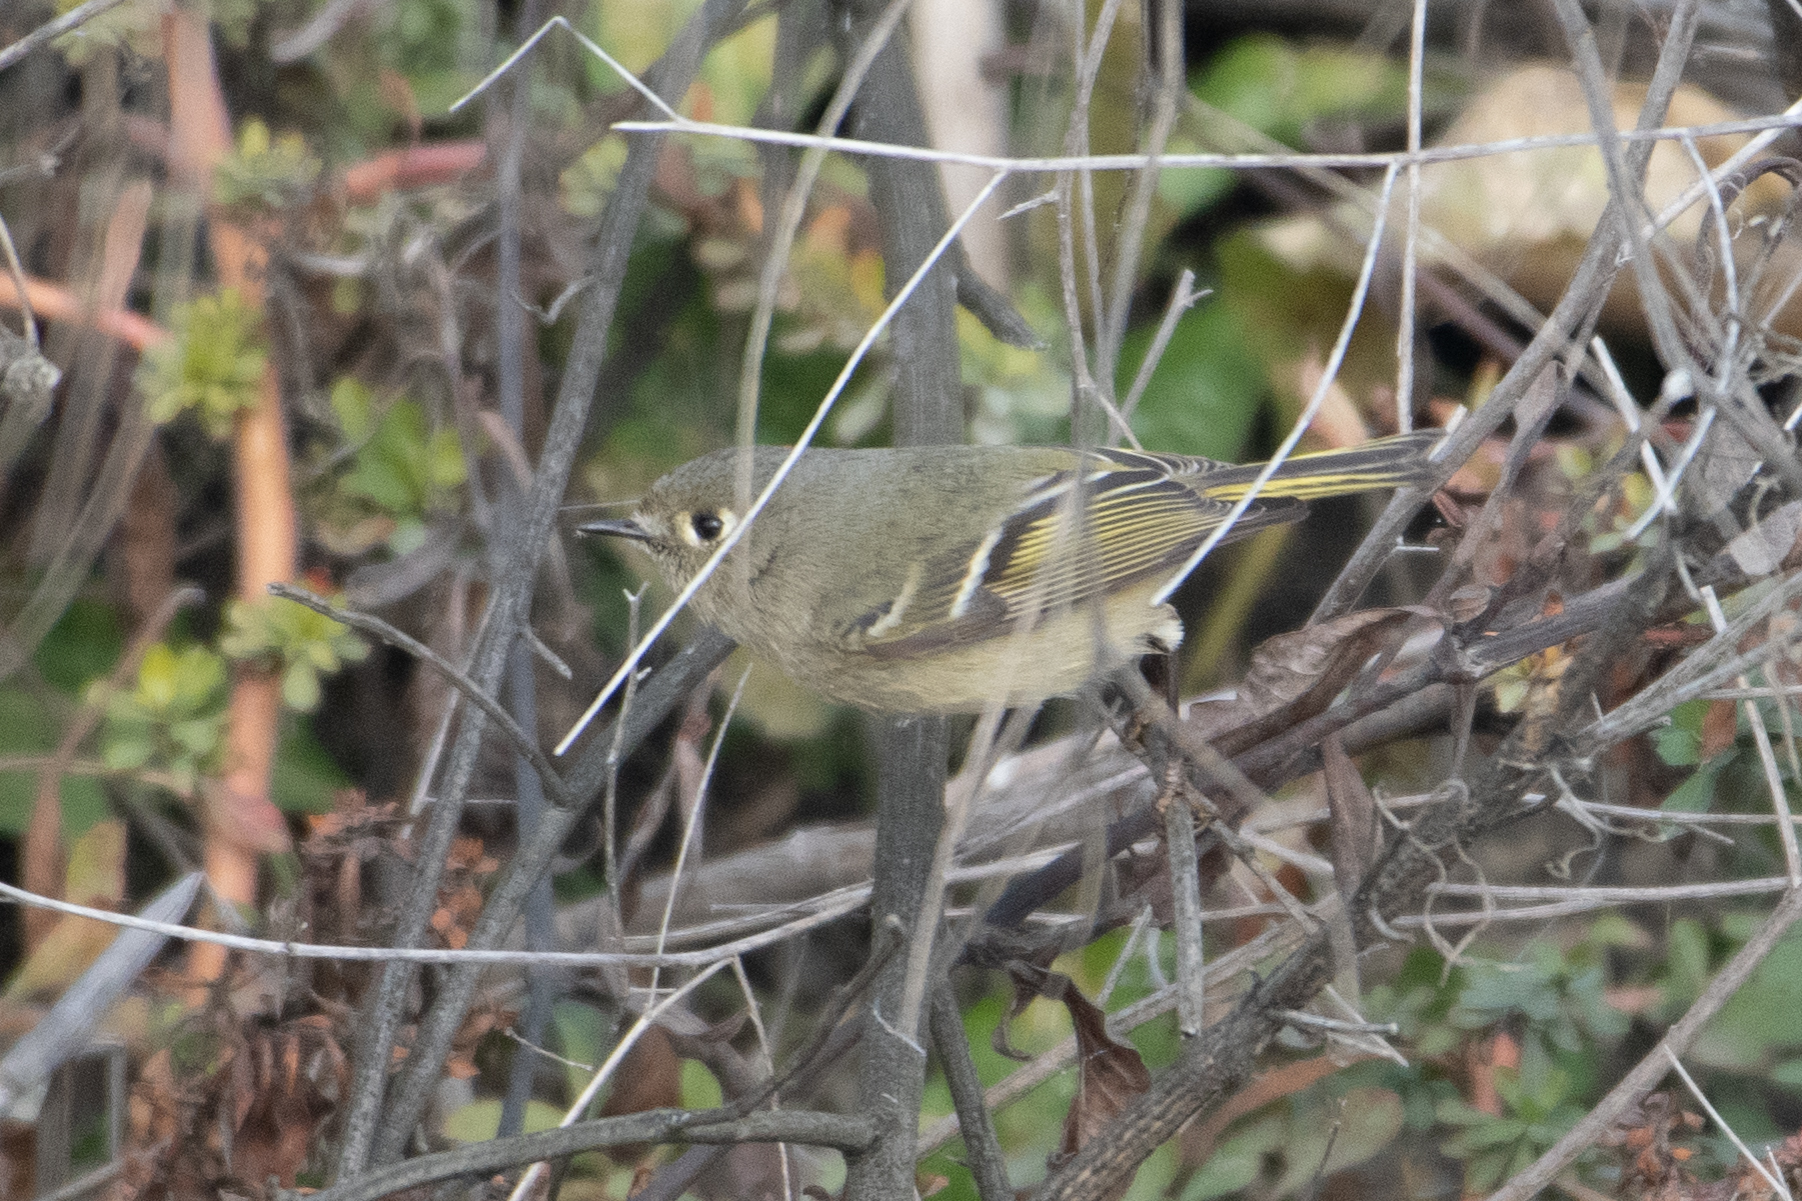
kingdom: Animalia
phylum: Chordata
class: Aves
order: Passeriformes
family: Regulidae
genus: Regulus
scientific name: Regulus calendula
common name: Ruby-crowned kinglet
